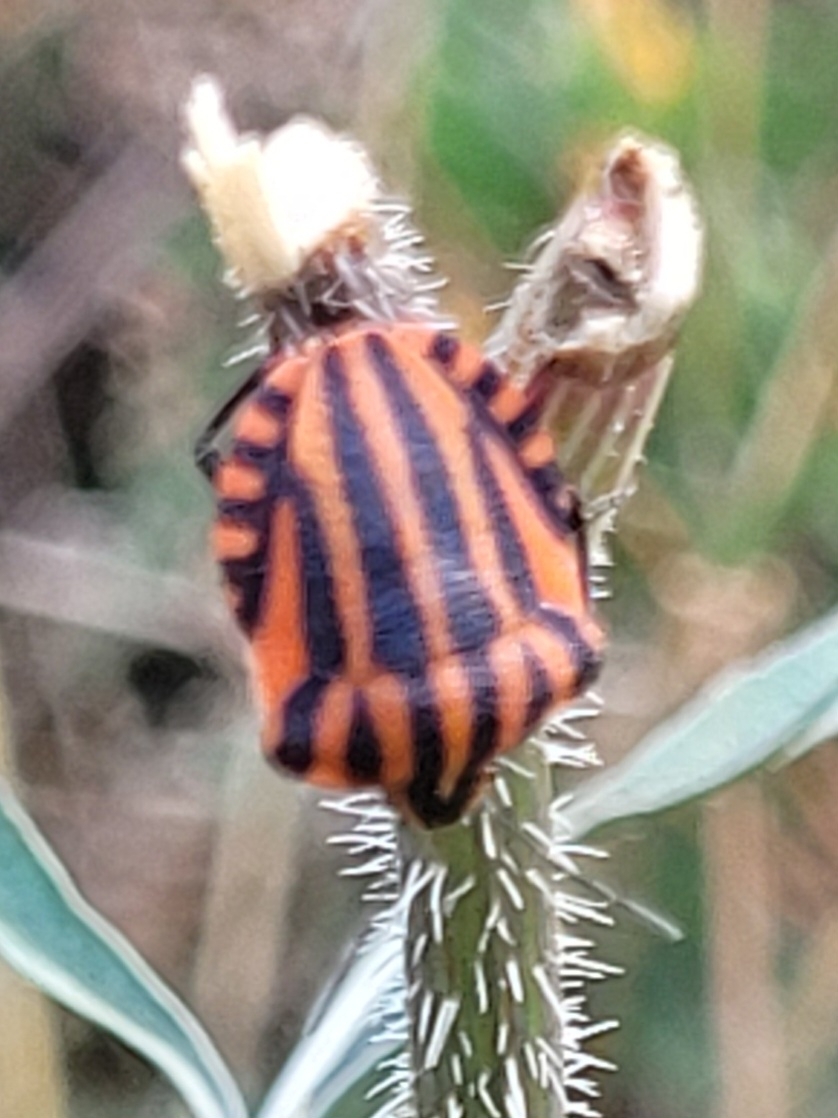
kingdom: Animalia
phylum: Arthropoda
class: Insecta
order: Hemiptera
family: Pentatomidae
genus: Graphosoma
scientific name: Graphosoma italicum
